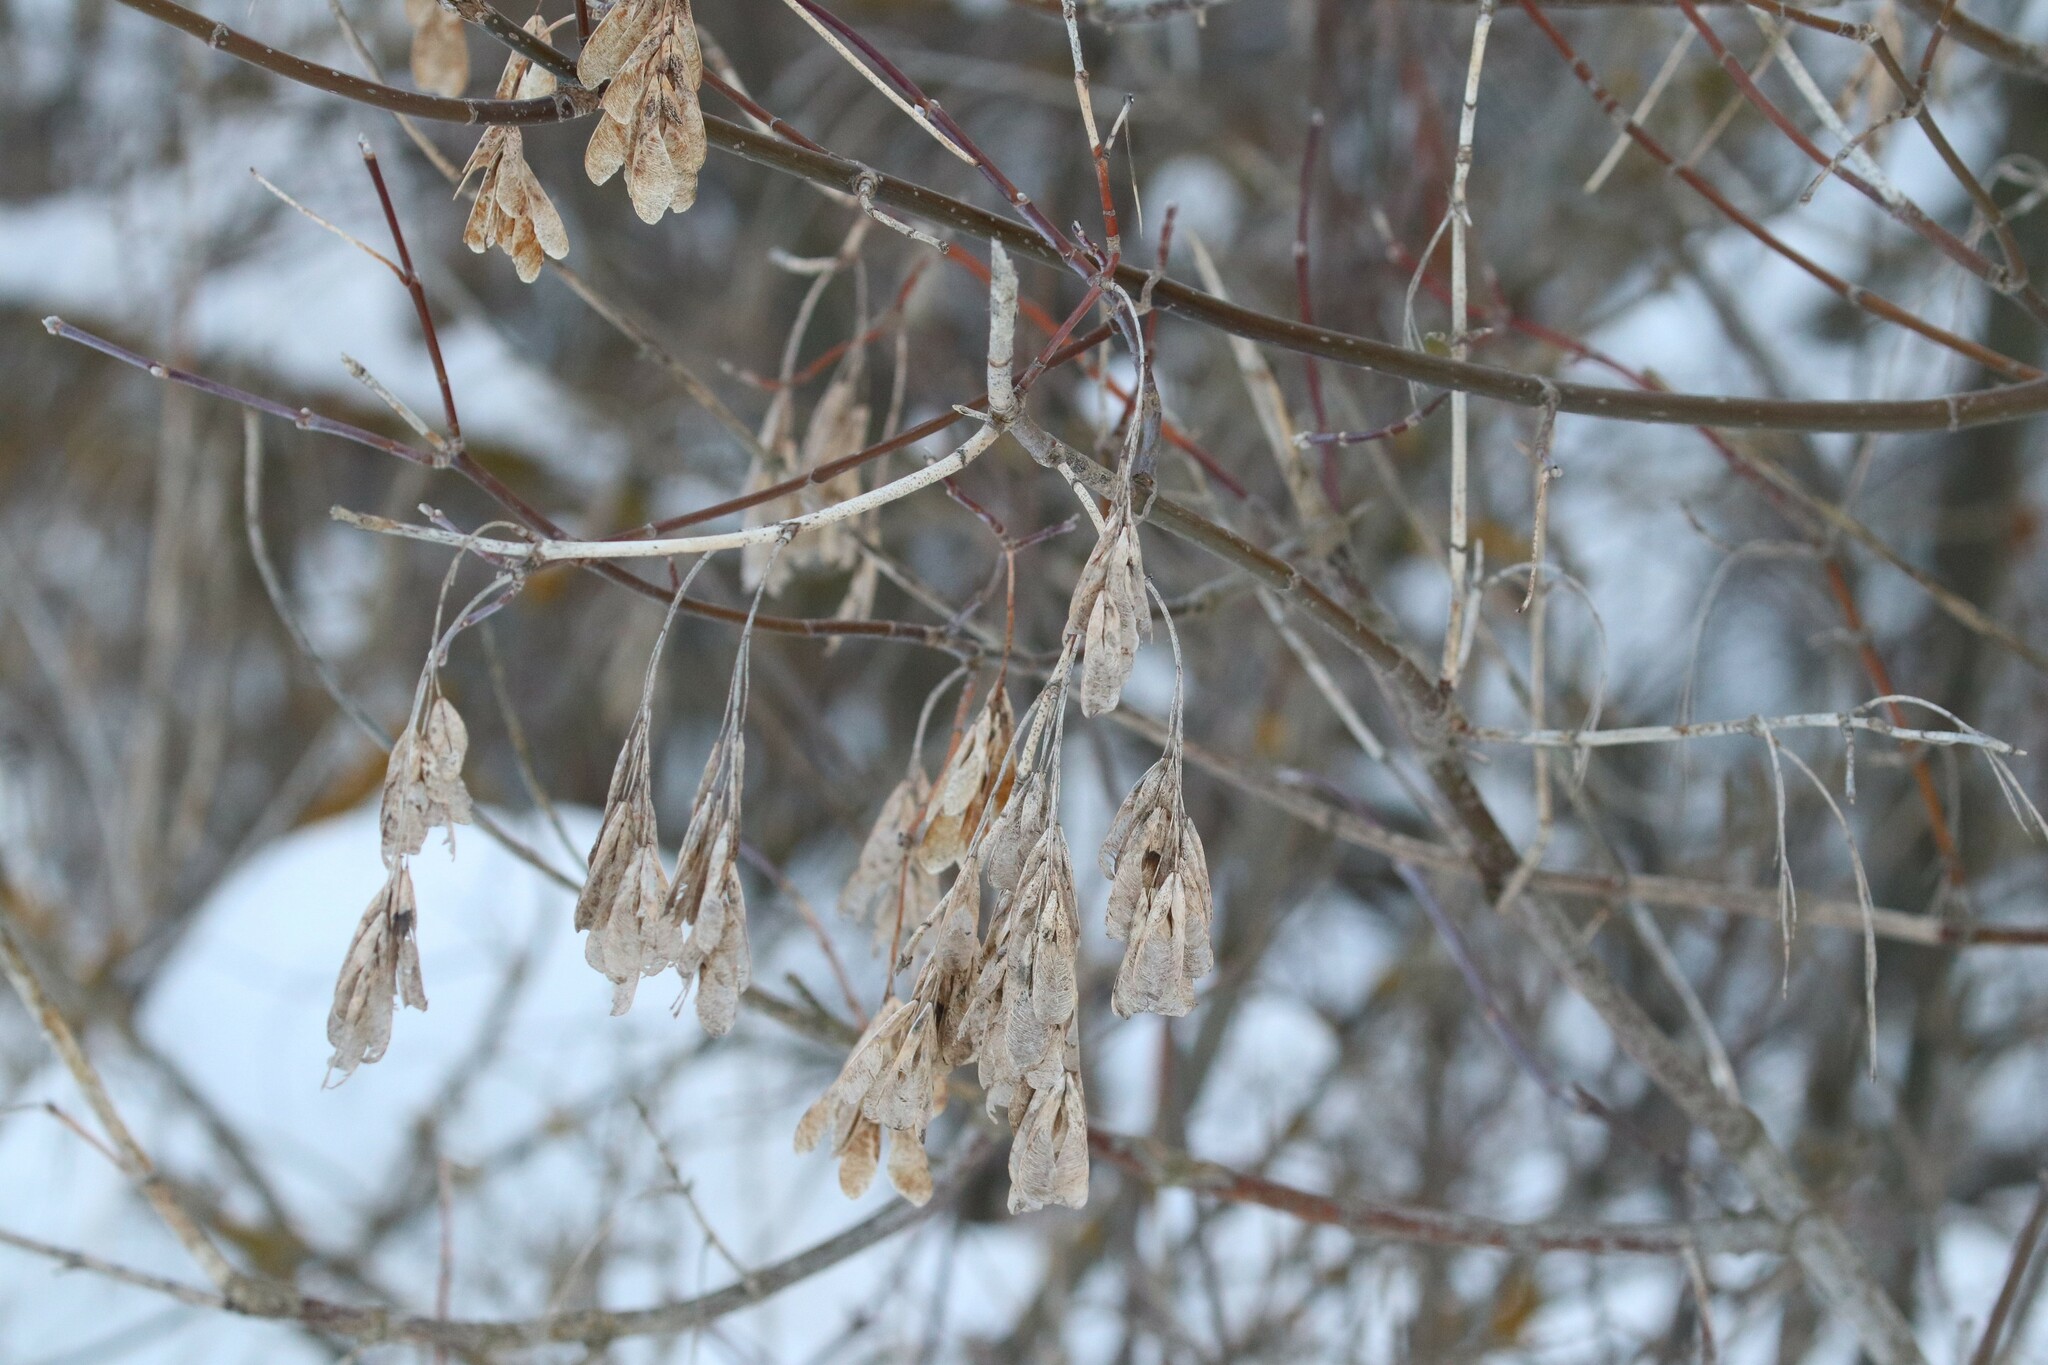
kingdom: Plantae
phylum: Tracheophyta
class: Magnoliopsida
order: Sapindales
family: Sapindaceae
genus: Acer
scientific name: Acer negundo
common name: Ashleaf maple
